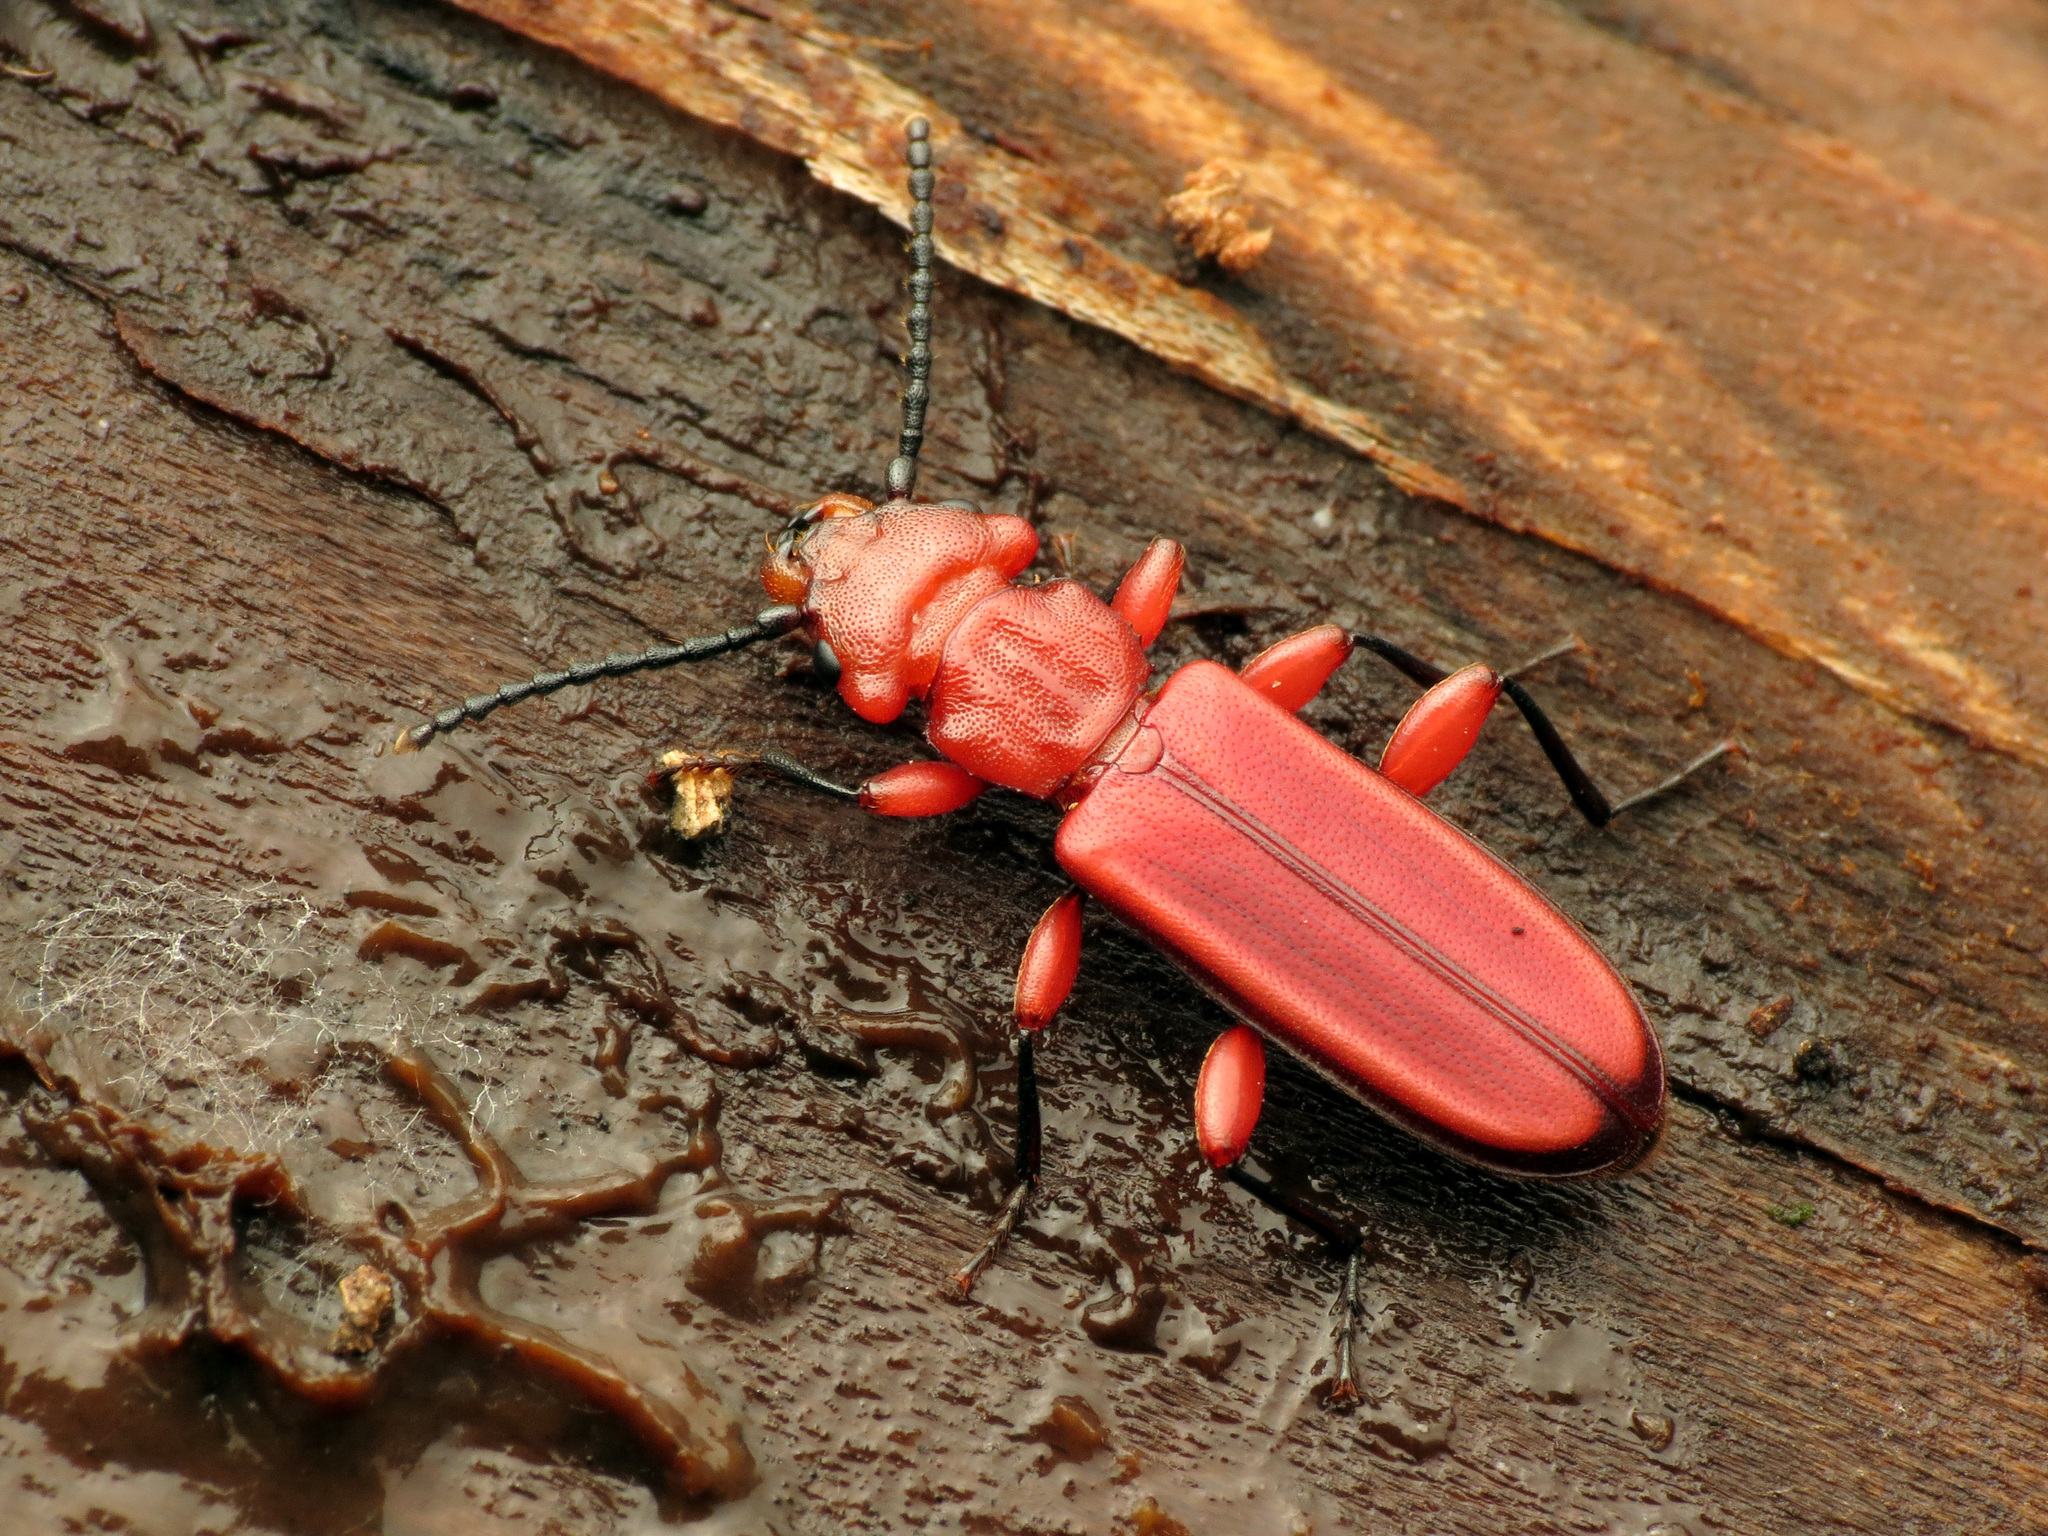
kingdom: Animalia
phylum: Arthropoda
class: Insecta
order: Coleoptera
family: Cucujidae
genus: Cucujus
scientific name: Cucujus clavipes
